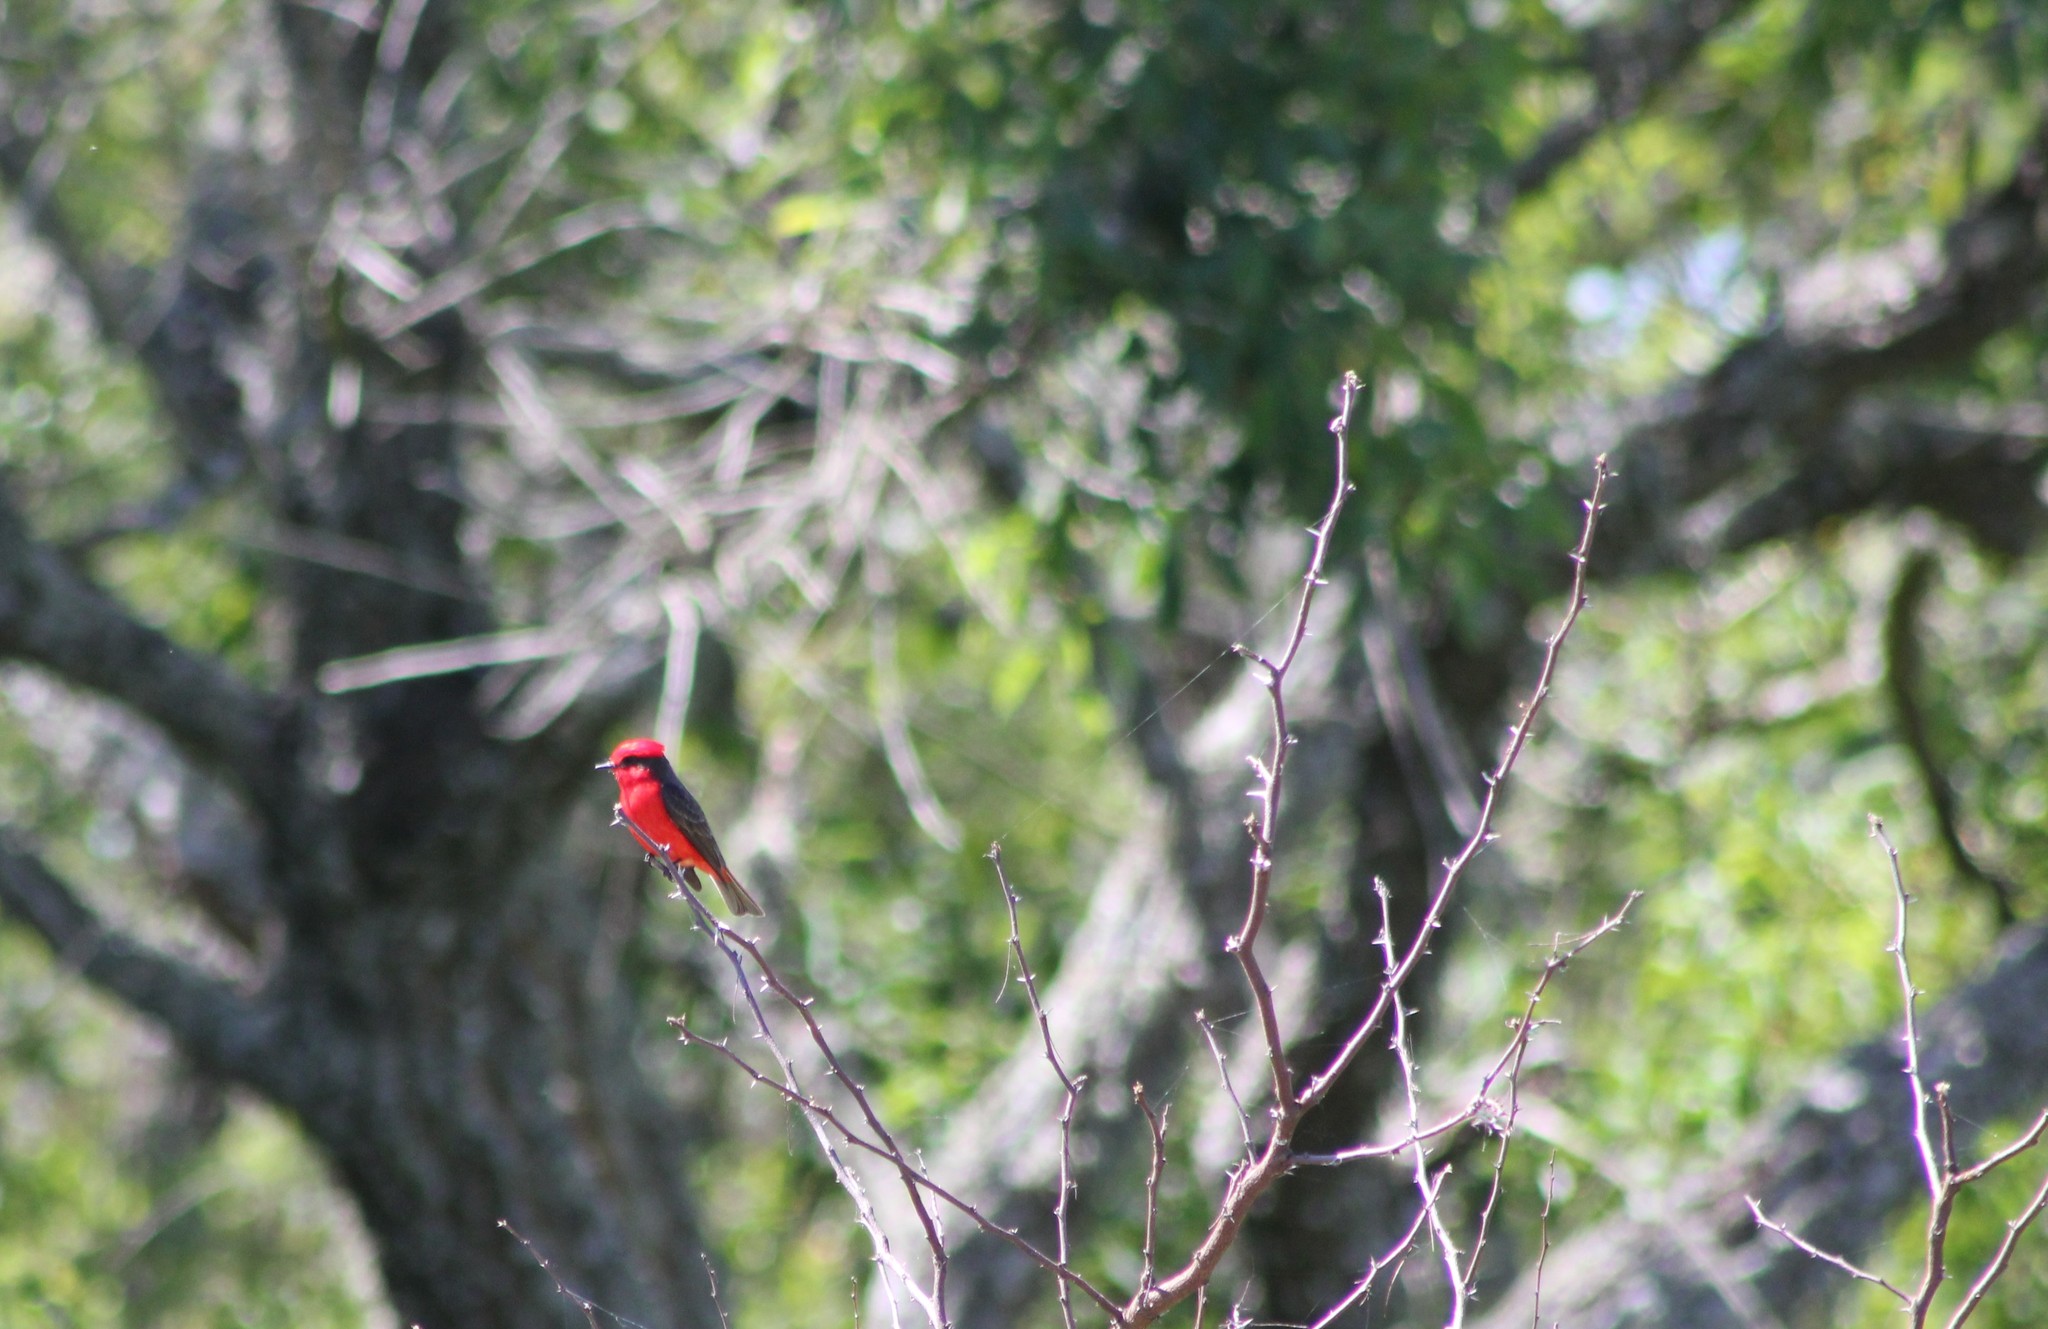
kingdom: Animalia
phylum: Chordata
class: Aves
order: Passeriformes
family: Tyrannidae
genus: Pyrocephalus
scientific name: Pyrocephalus rubinus
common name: Vermilion flycatcher
